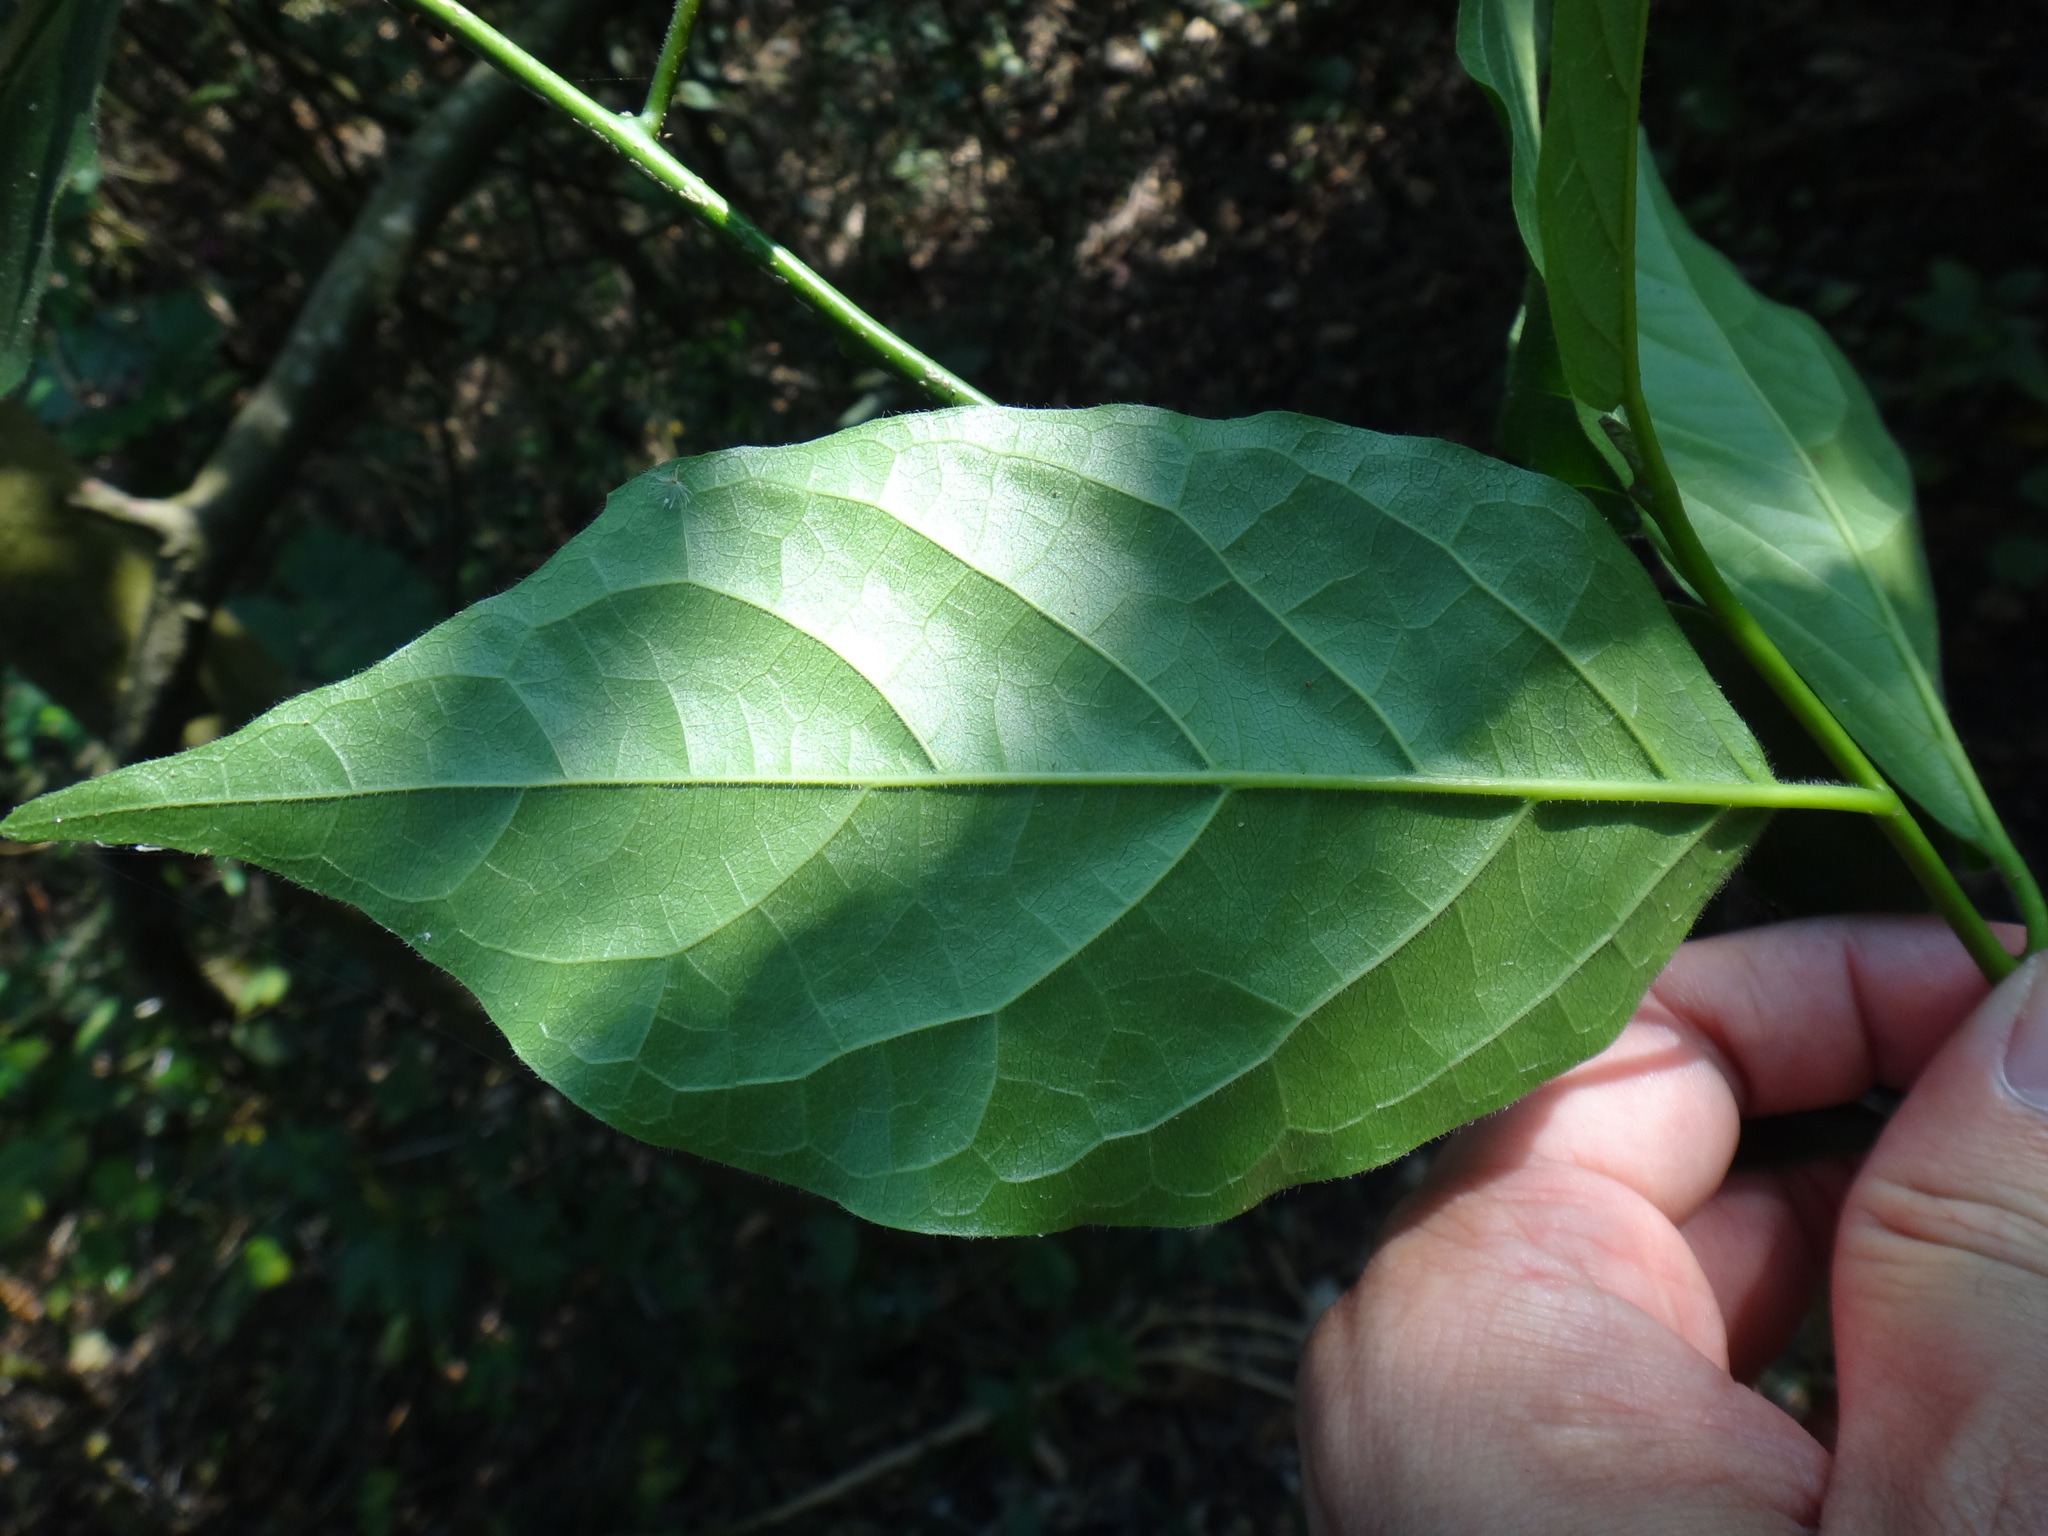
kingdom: Plantae
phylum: Tracheophyta
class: Magnoliopsida
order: Boraginales
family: Ehretiaceae
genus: Ehretia
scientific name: Ehretia resinosa
